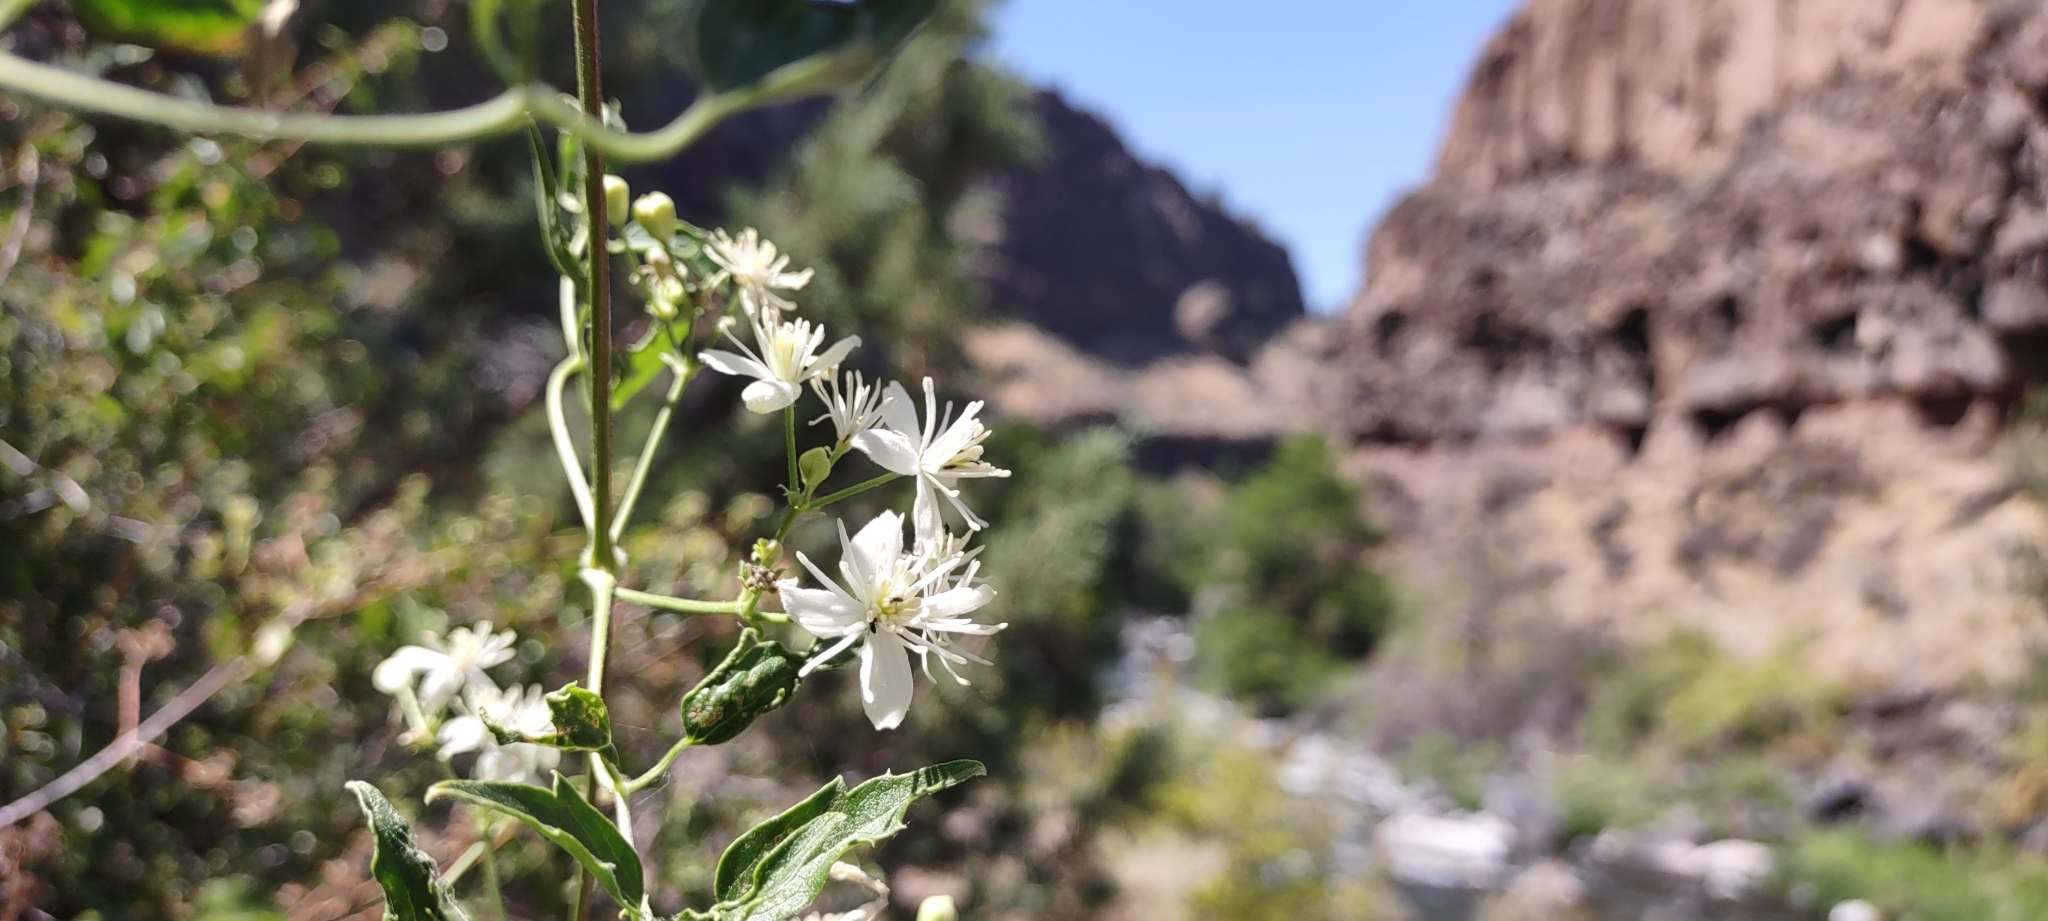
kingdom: Plantae
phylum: Tracheophyta
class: Magnoliopsida
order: Ranunculales
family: Ranunculaceae
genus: Clematis
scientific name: Clematis ligusticifolia
